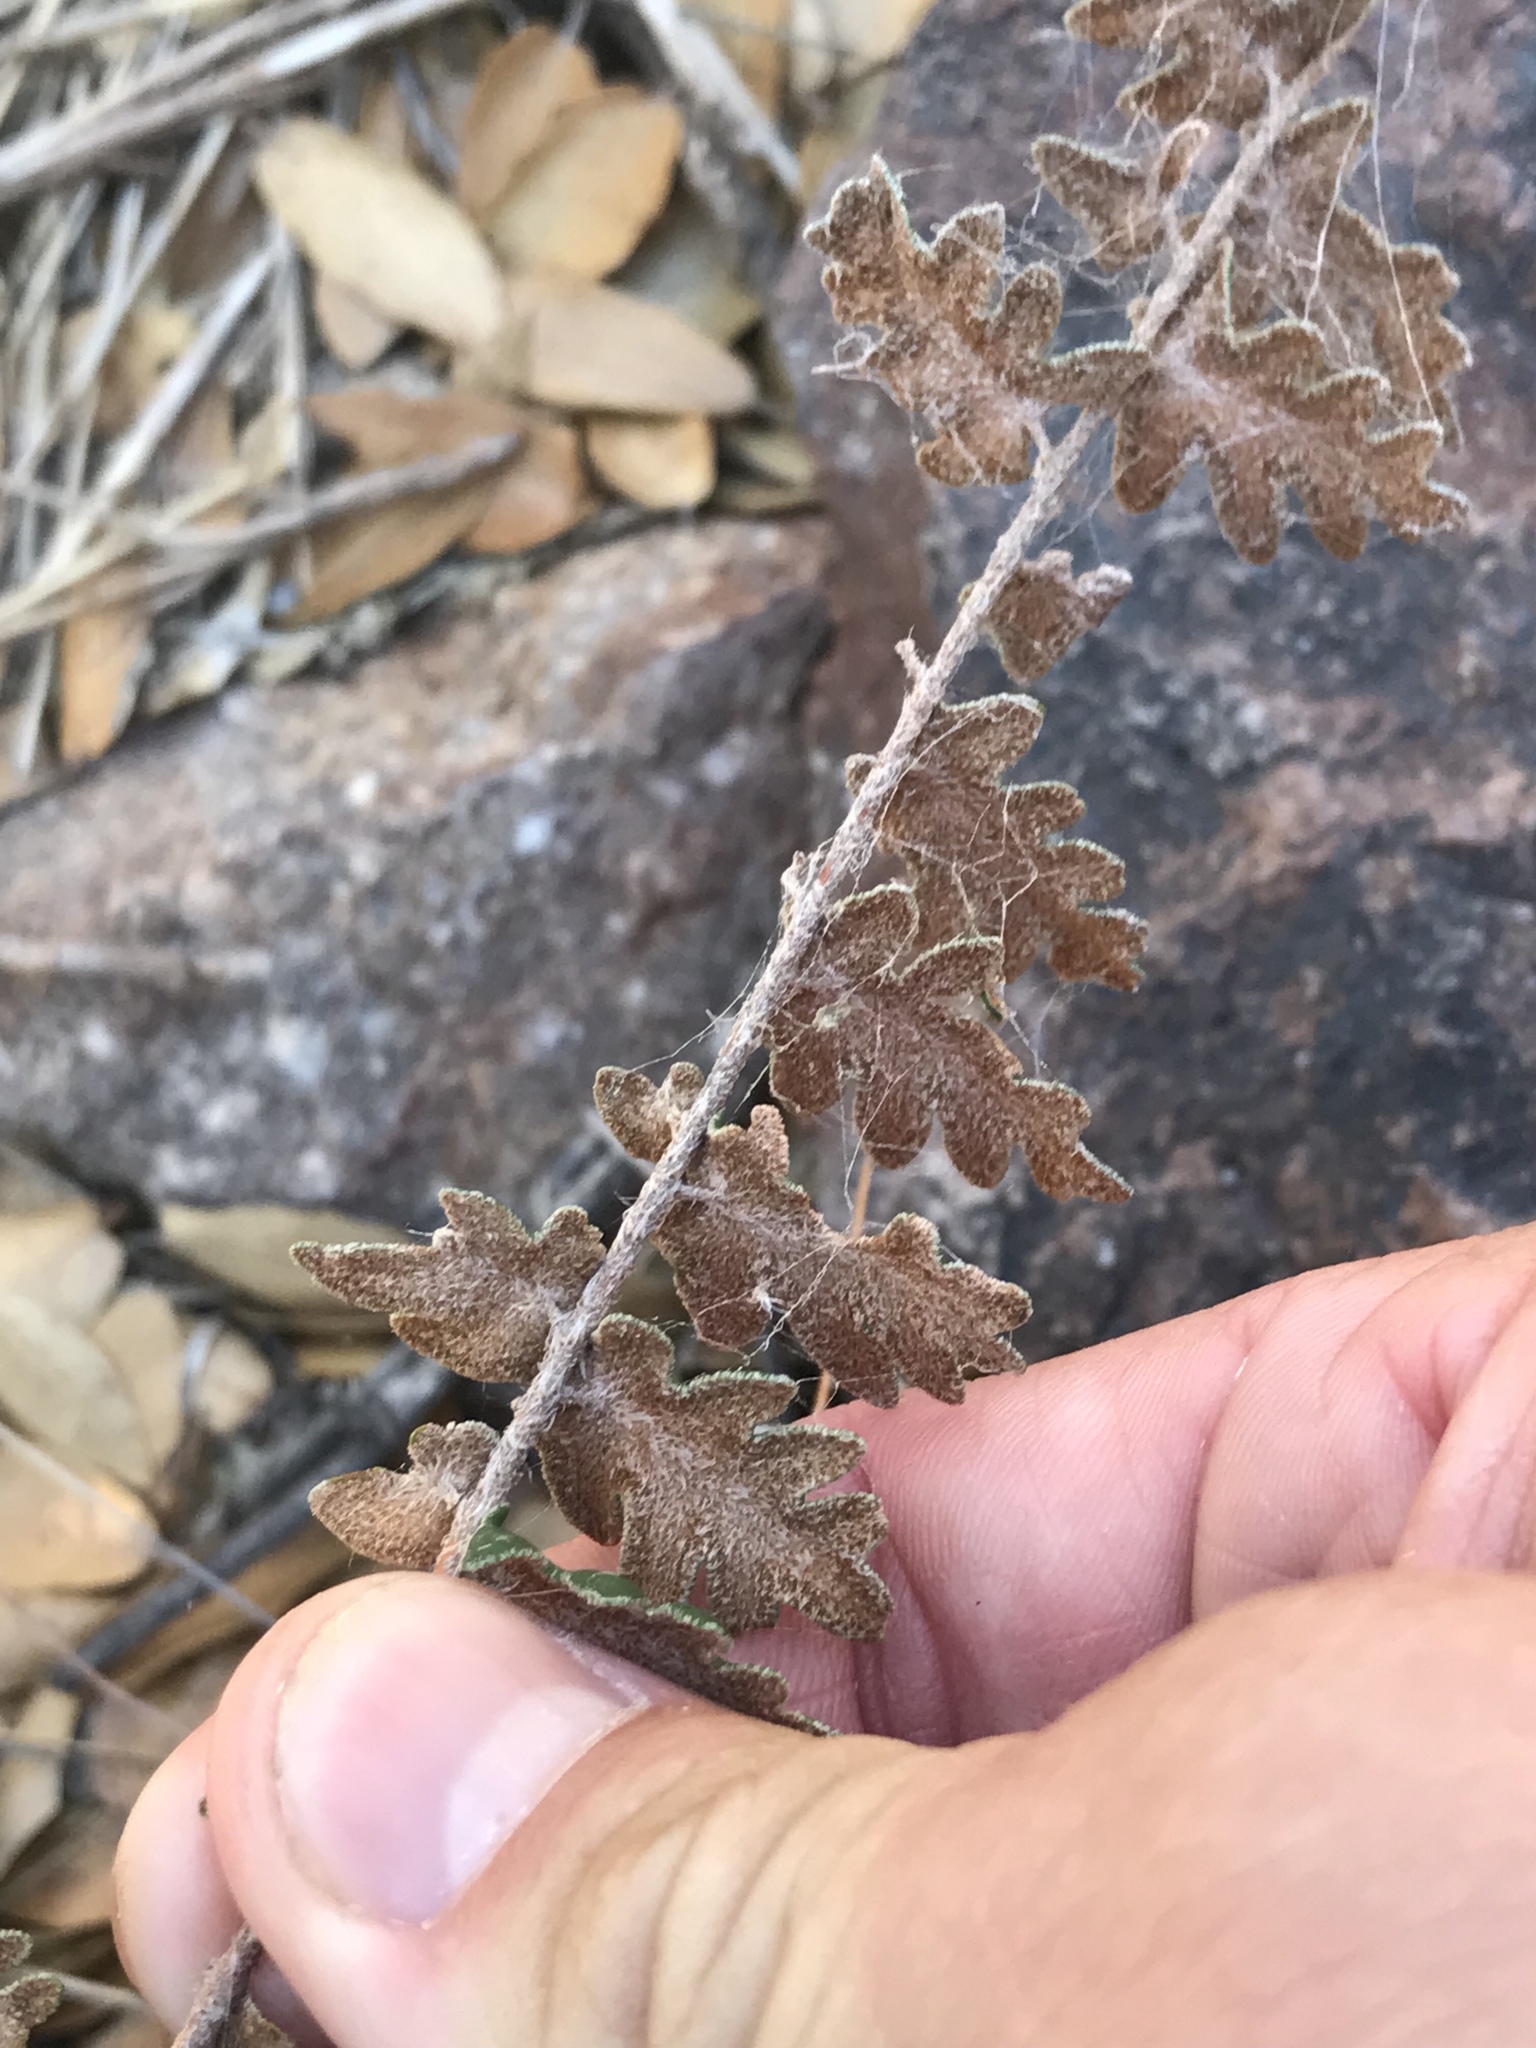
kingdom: Plantae
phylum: Tracheophyta
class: Polypodiopsida
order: Polypodiales
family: Pteridaceae
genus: Astrolepis
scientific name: Astrolepis sinuata
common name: Wavy scaly cloakfern
